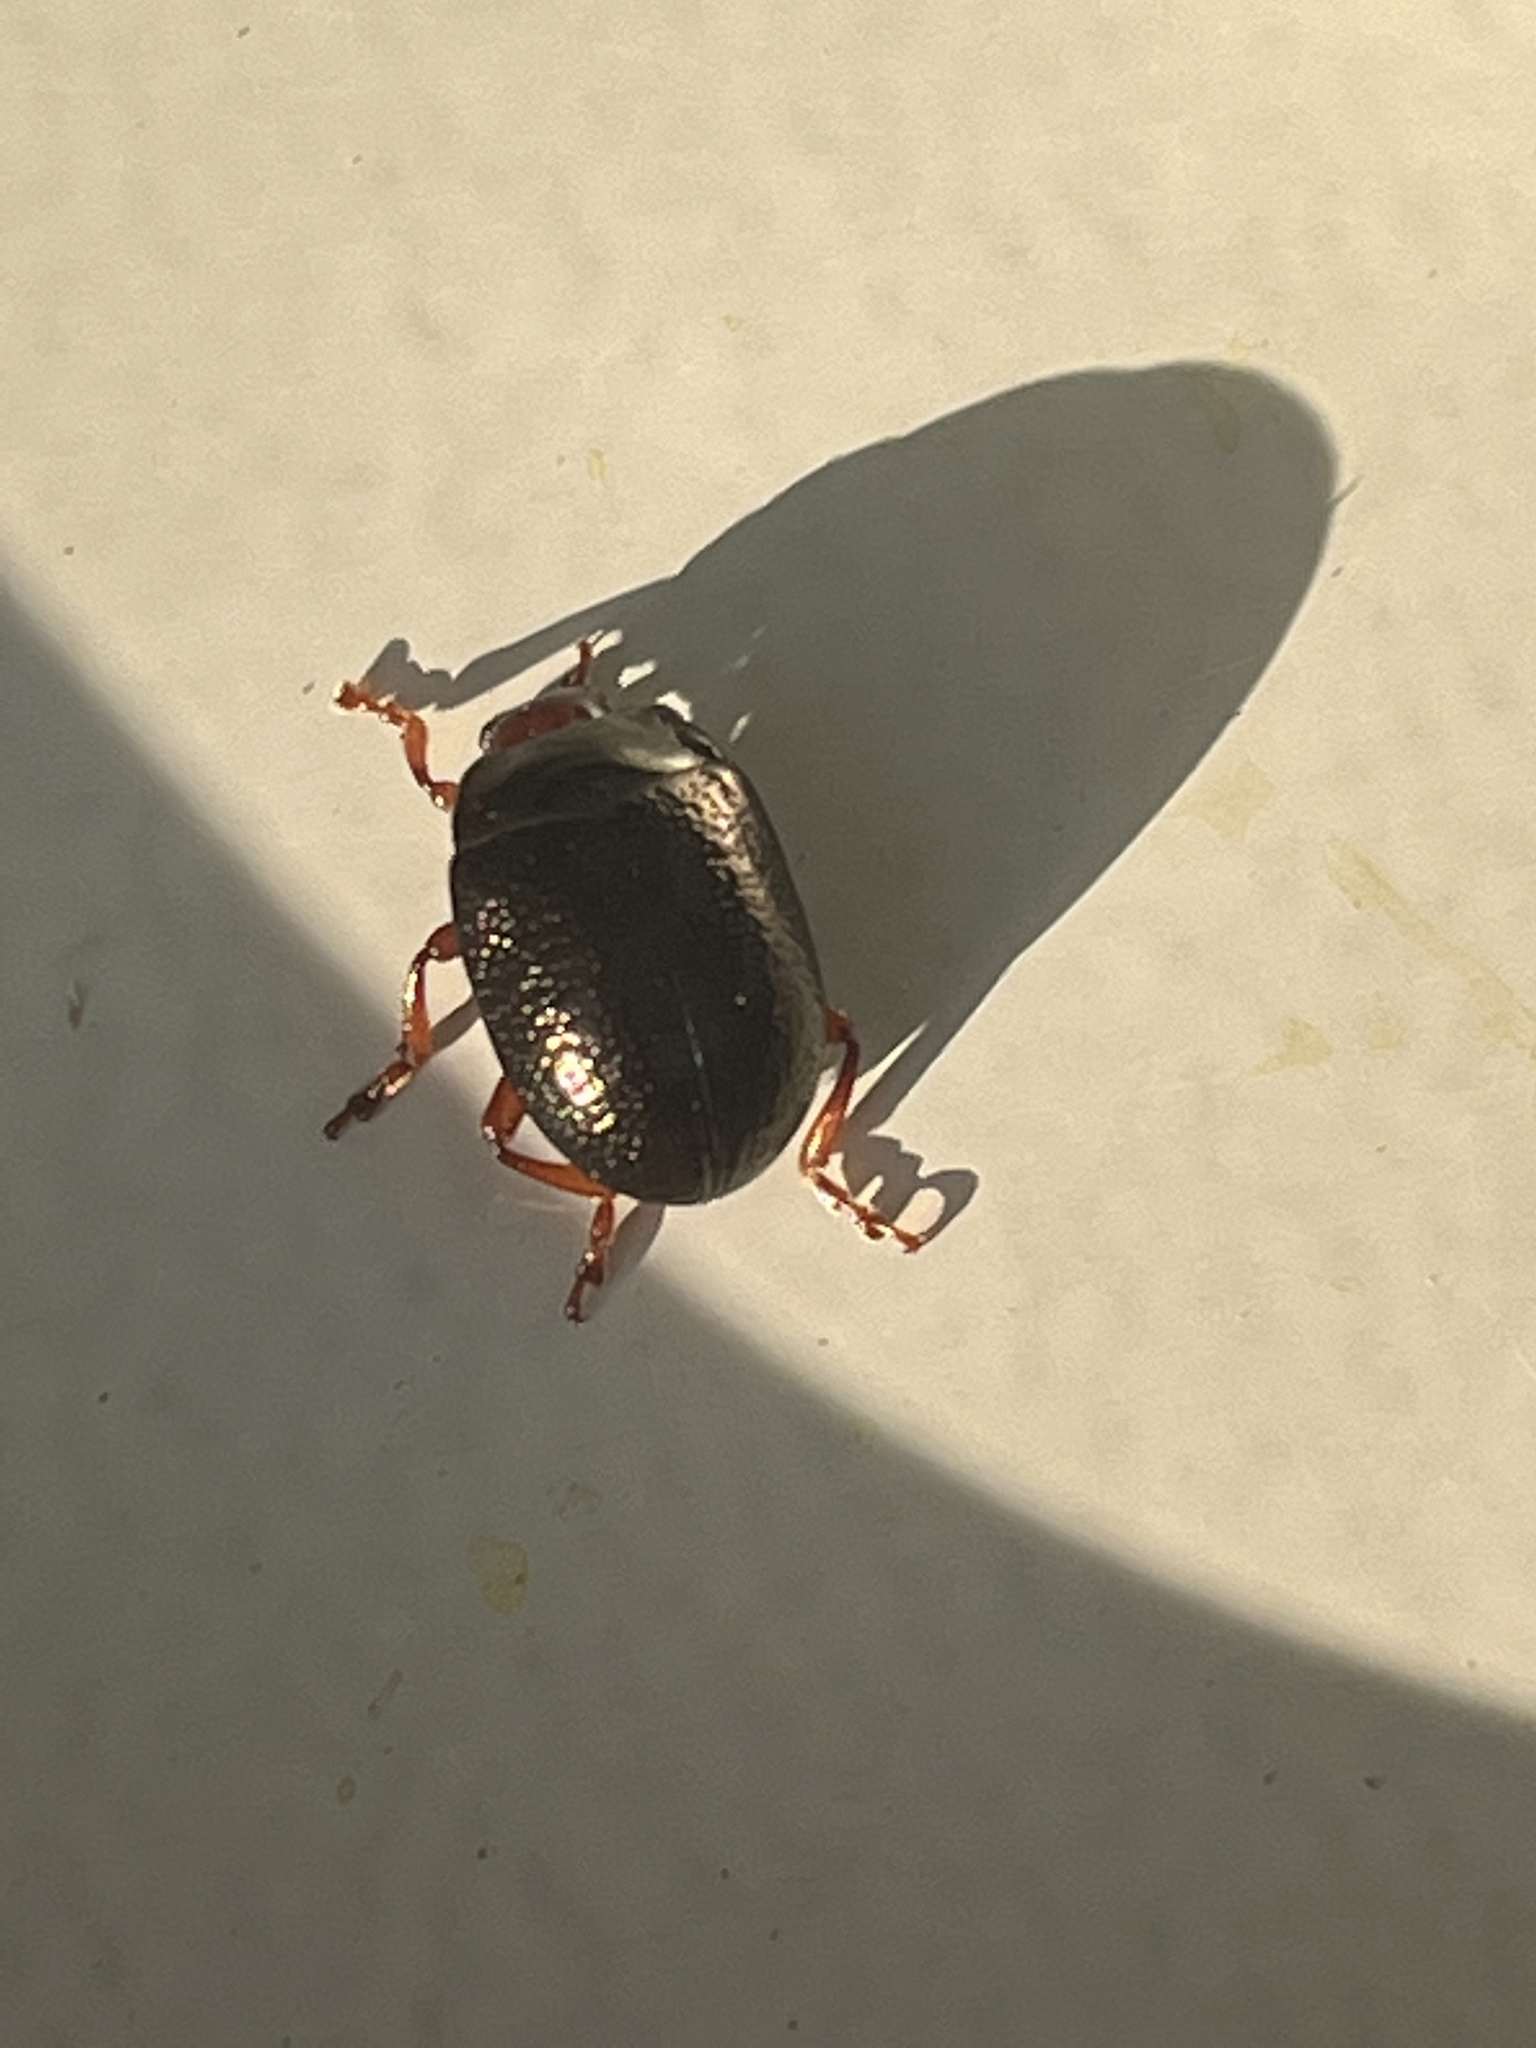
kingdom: Animalia
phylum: Arthropoda
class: Insecta
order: Coleoptera
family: Chrysomelidae
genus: Chrysolina
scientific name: Chrysolina bankii
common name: Leaf beetle
